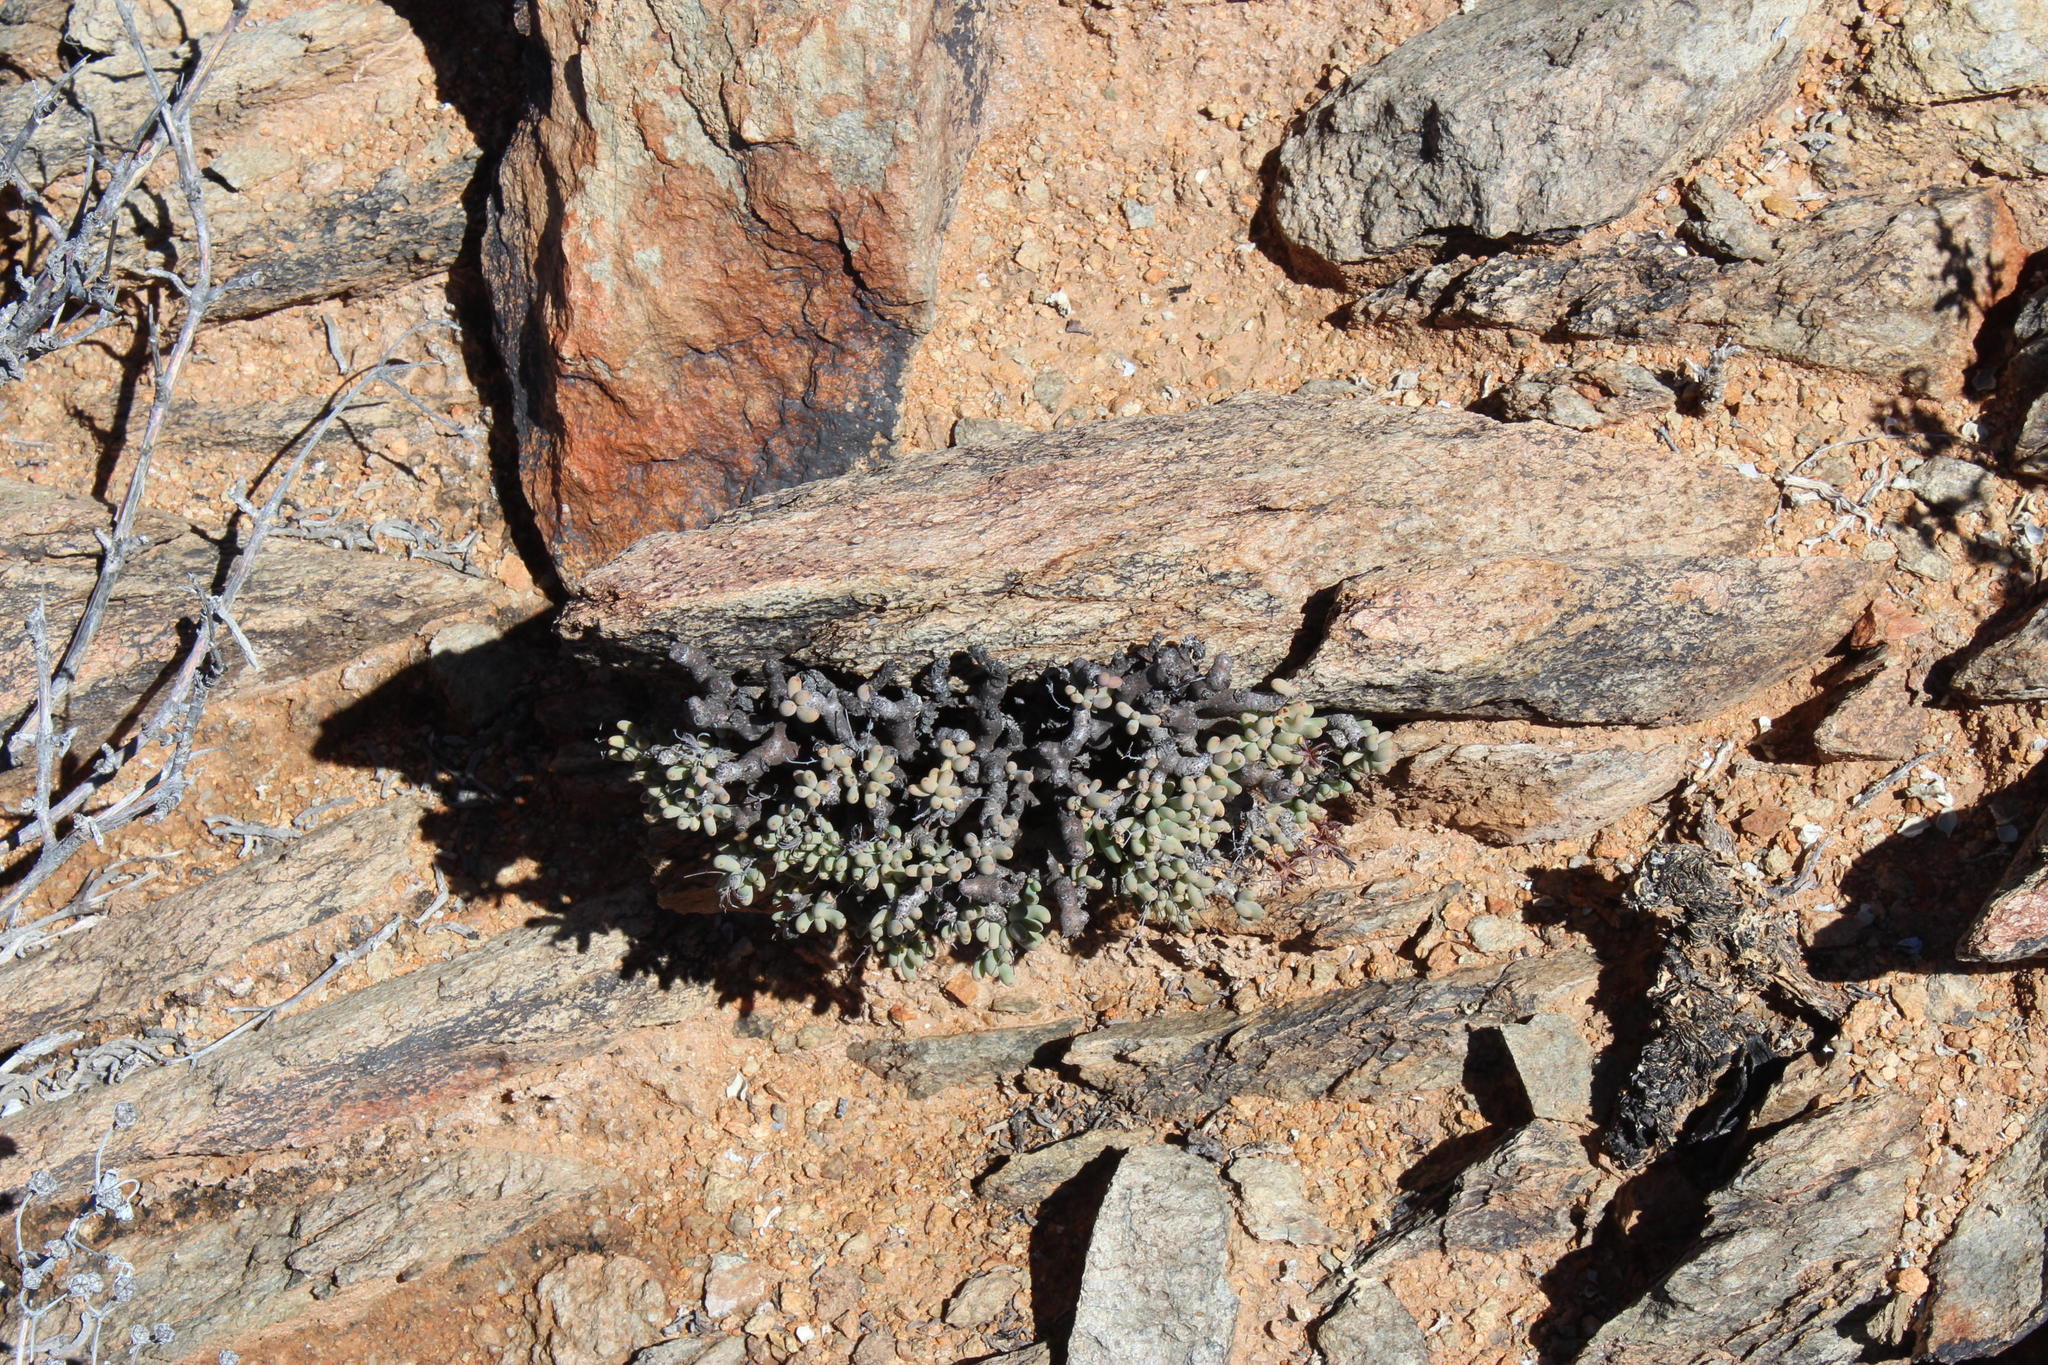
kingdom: Plantae
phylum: Tracheophyta
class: Magnoliopsida
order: Saxifragales
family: Crassulaceae
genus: Tylecodon
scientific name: Tylecodon buchholzianus
